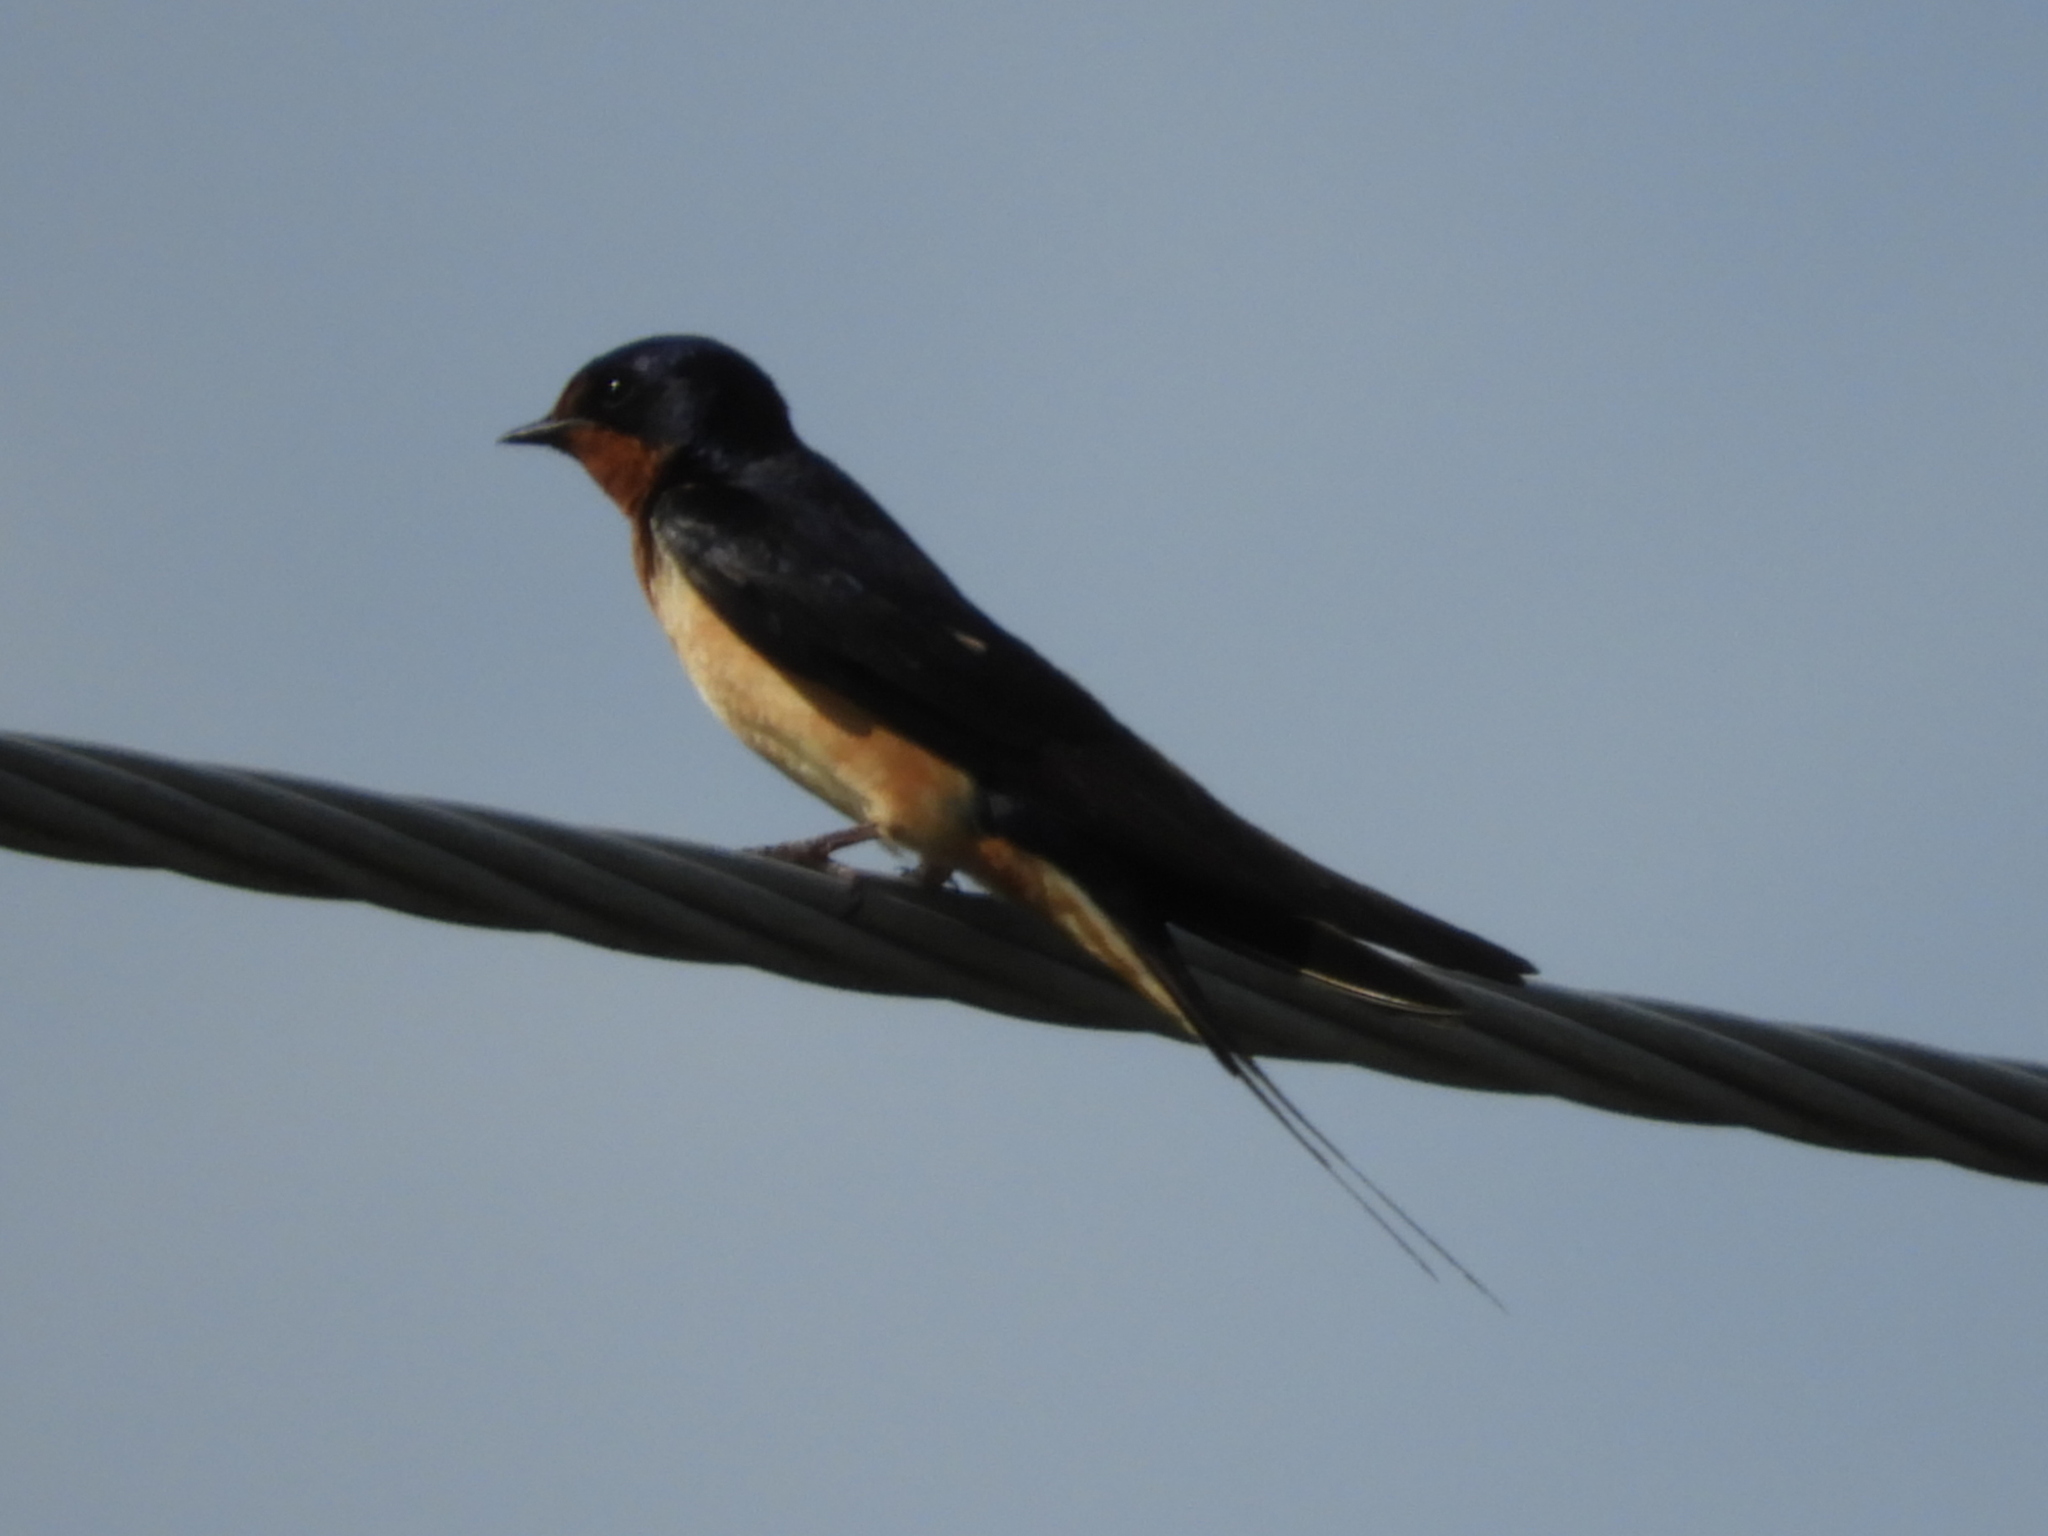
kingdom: Animalia
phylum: Chordata
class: Aves
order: Passeriformes
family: Hirundinidae
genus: Hirundo
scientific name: Hirundo rustica
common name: Barn swallow
